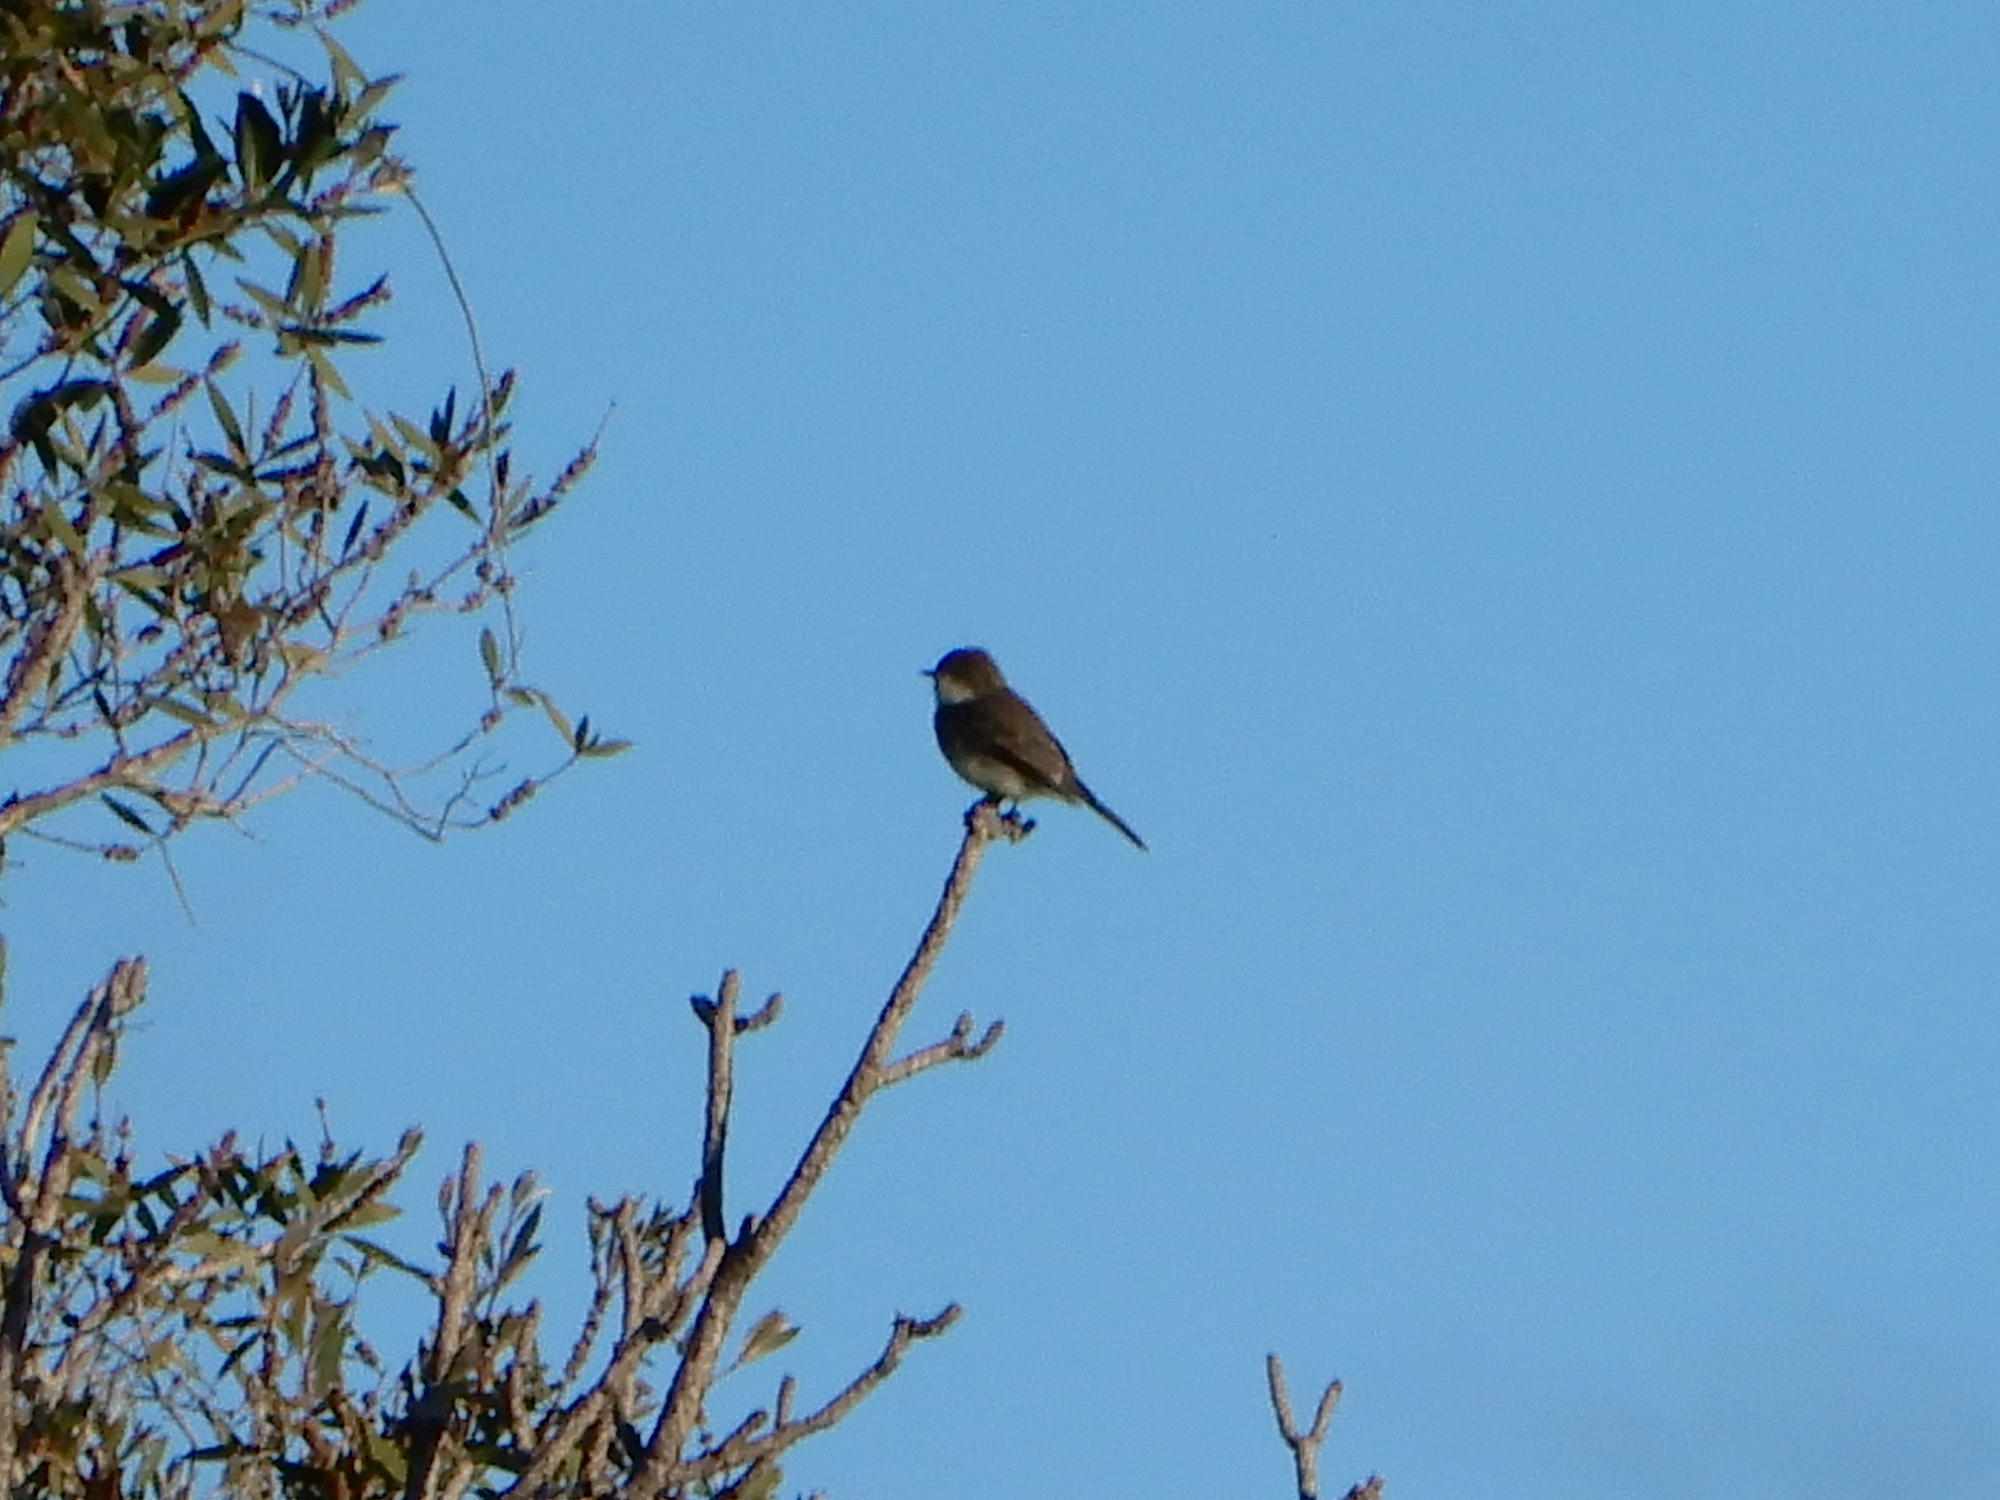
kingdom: Animalia
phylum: Chordata
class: Aves
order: Passeriformes
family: Tyrannidae
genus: Sayornis
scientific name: Sayornis phoebe
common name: Eastern phoebe
